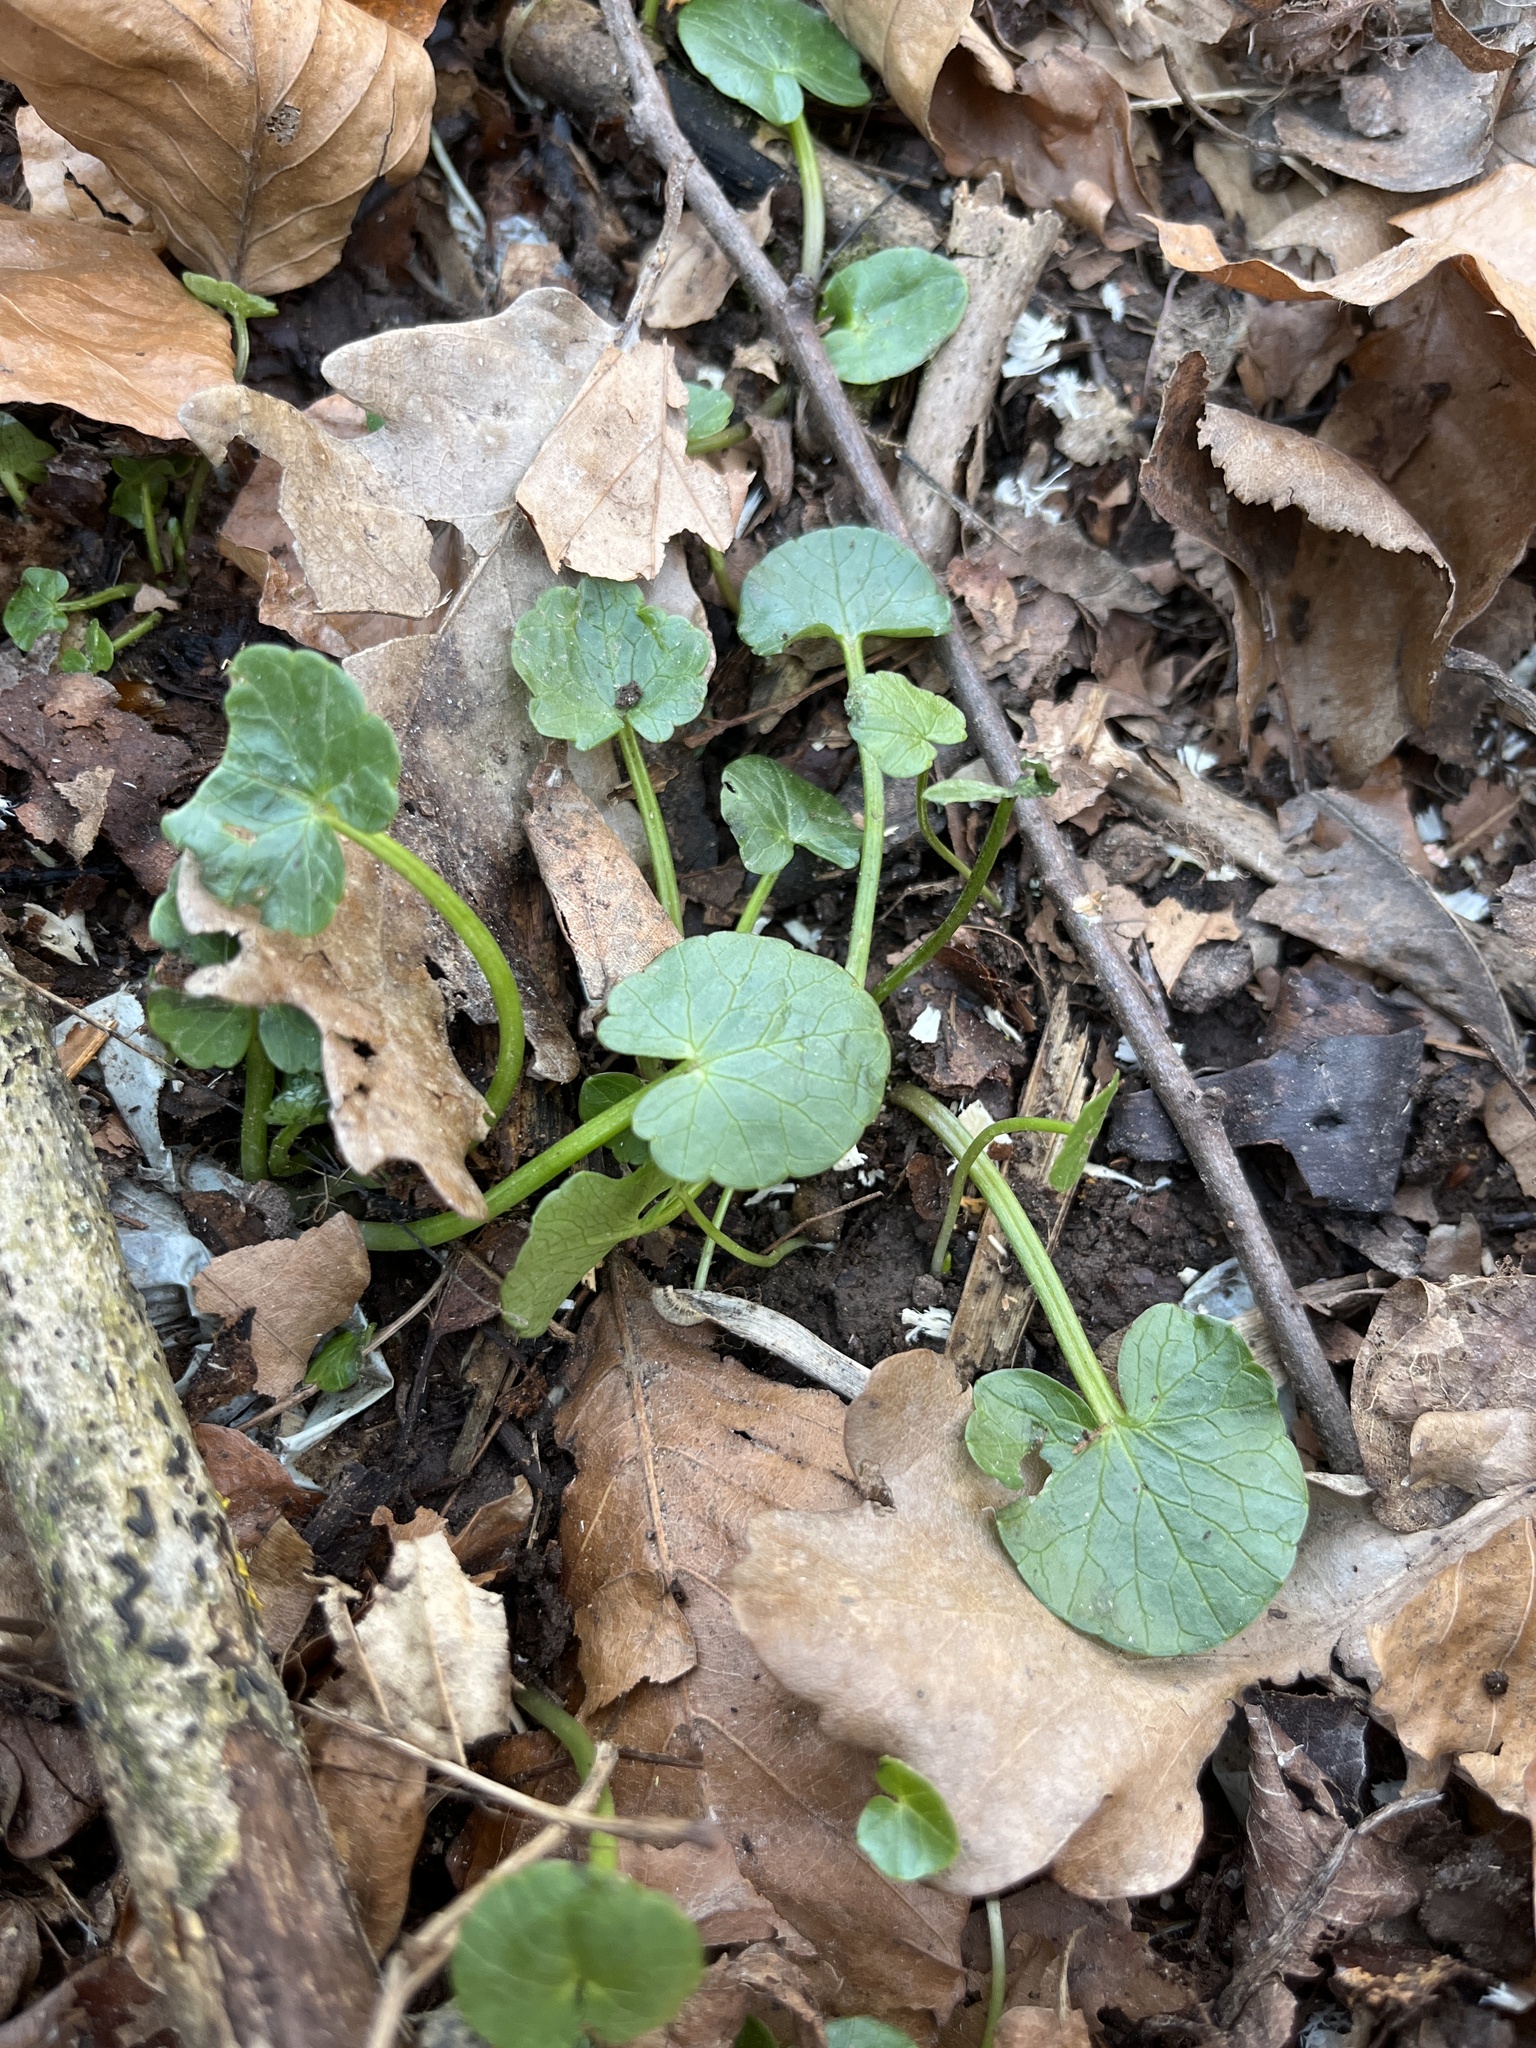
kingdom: Plantae
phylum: Tracheophyta
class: Magnoliopsida
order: Ranunculales
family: Ranunculaceae
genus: Ficaria
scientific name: Ficaria verna
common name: Lesser celandine
